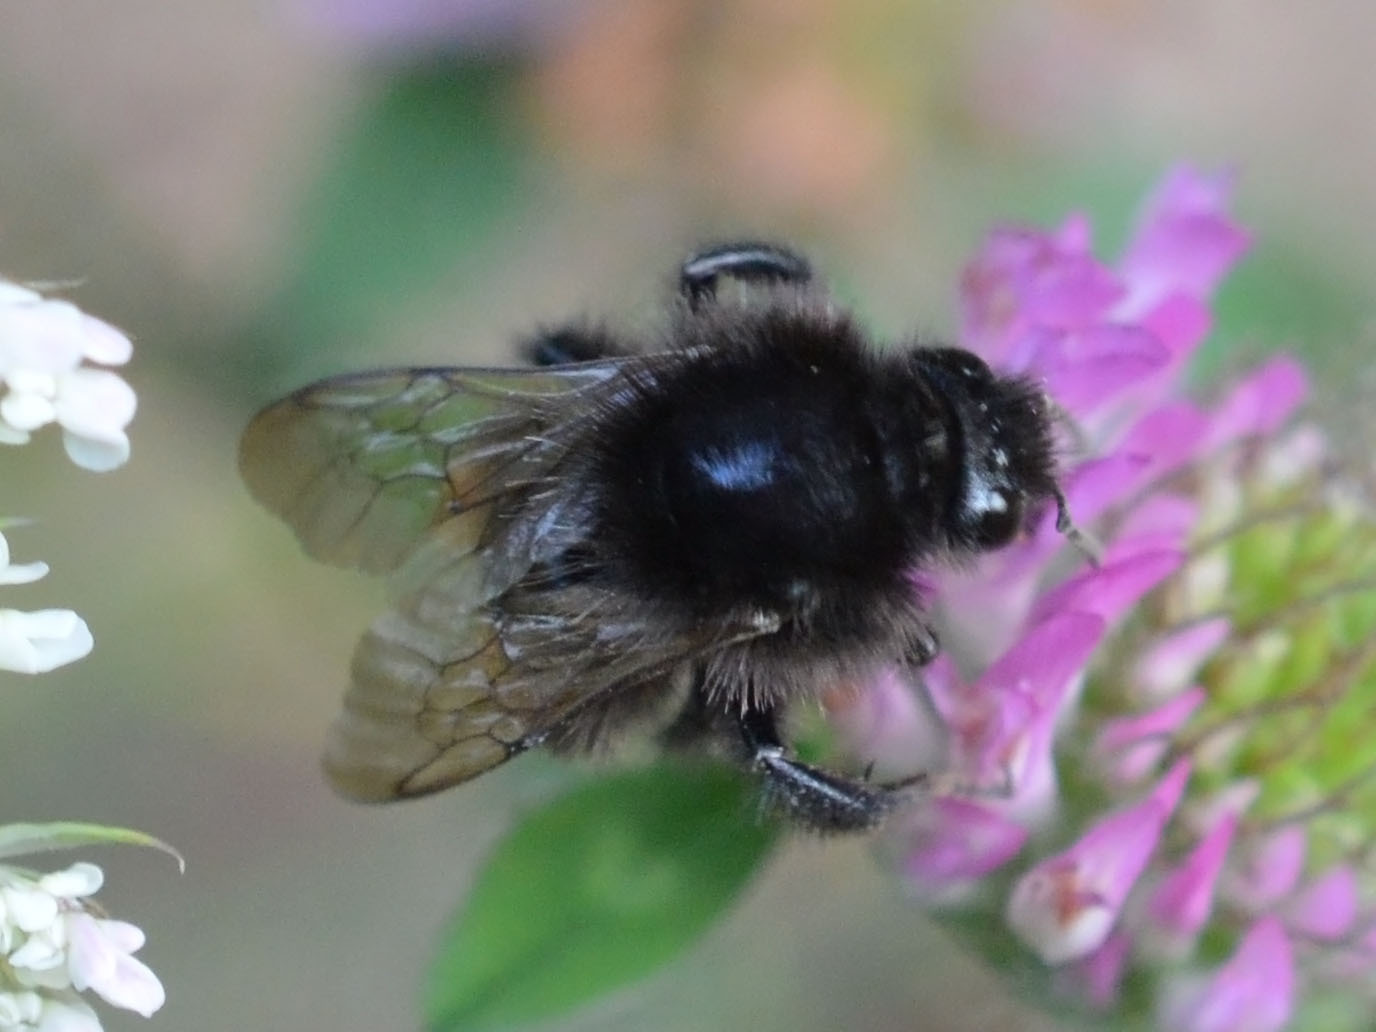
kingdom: Animalia
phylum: Arthropoda
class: Insecta
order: Hymenoptera
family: Apidae
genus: Bombus
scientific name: Bombus pomorum
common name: Apple humble-bee
